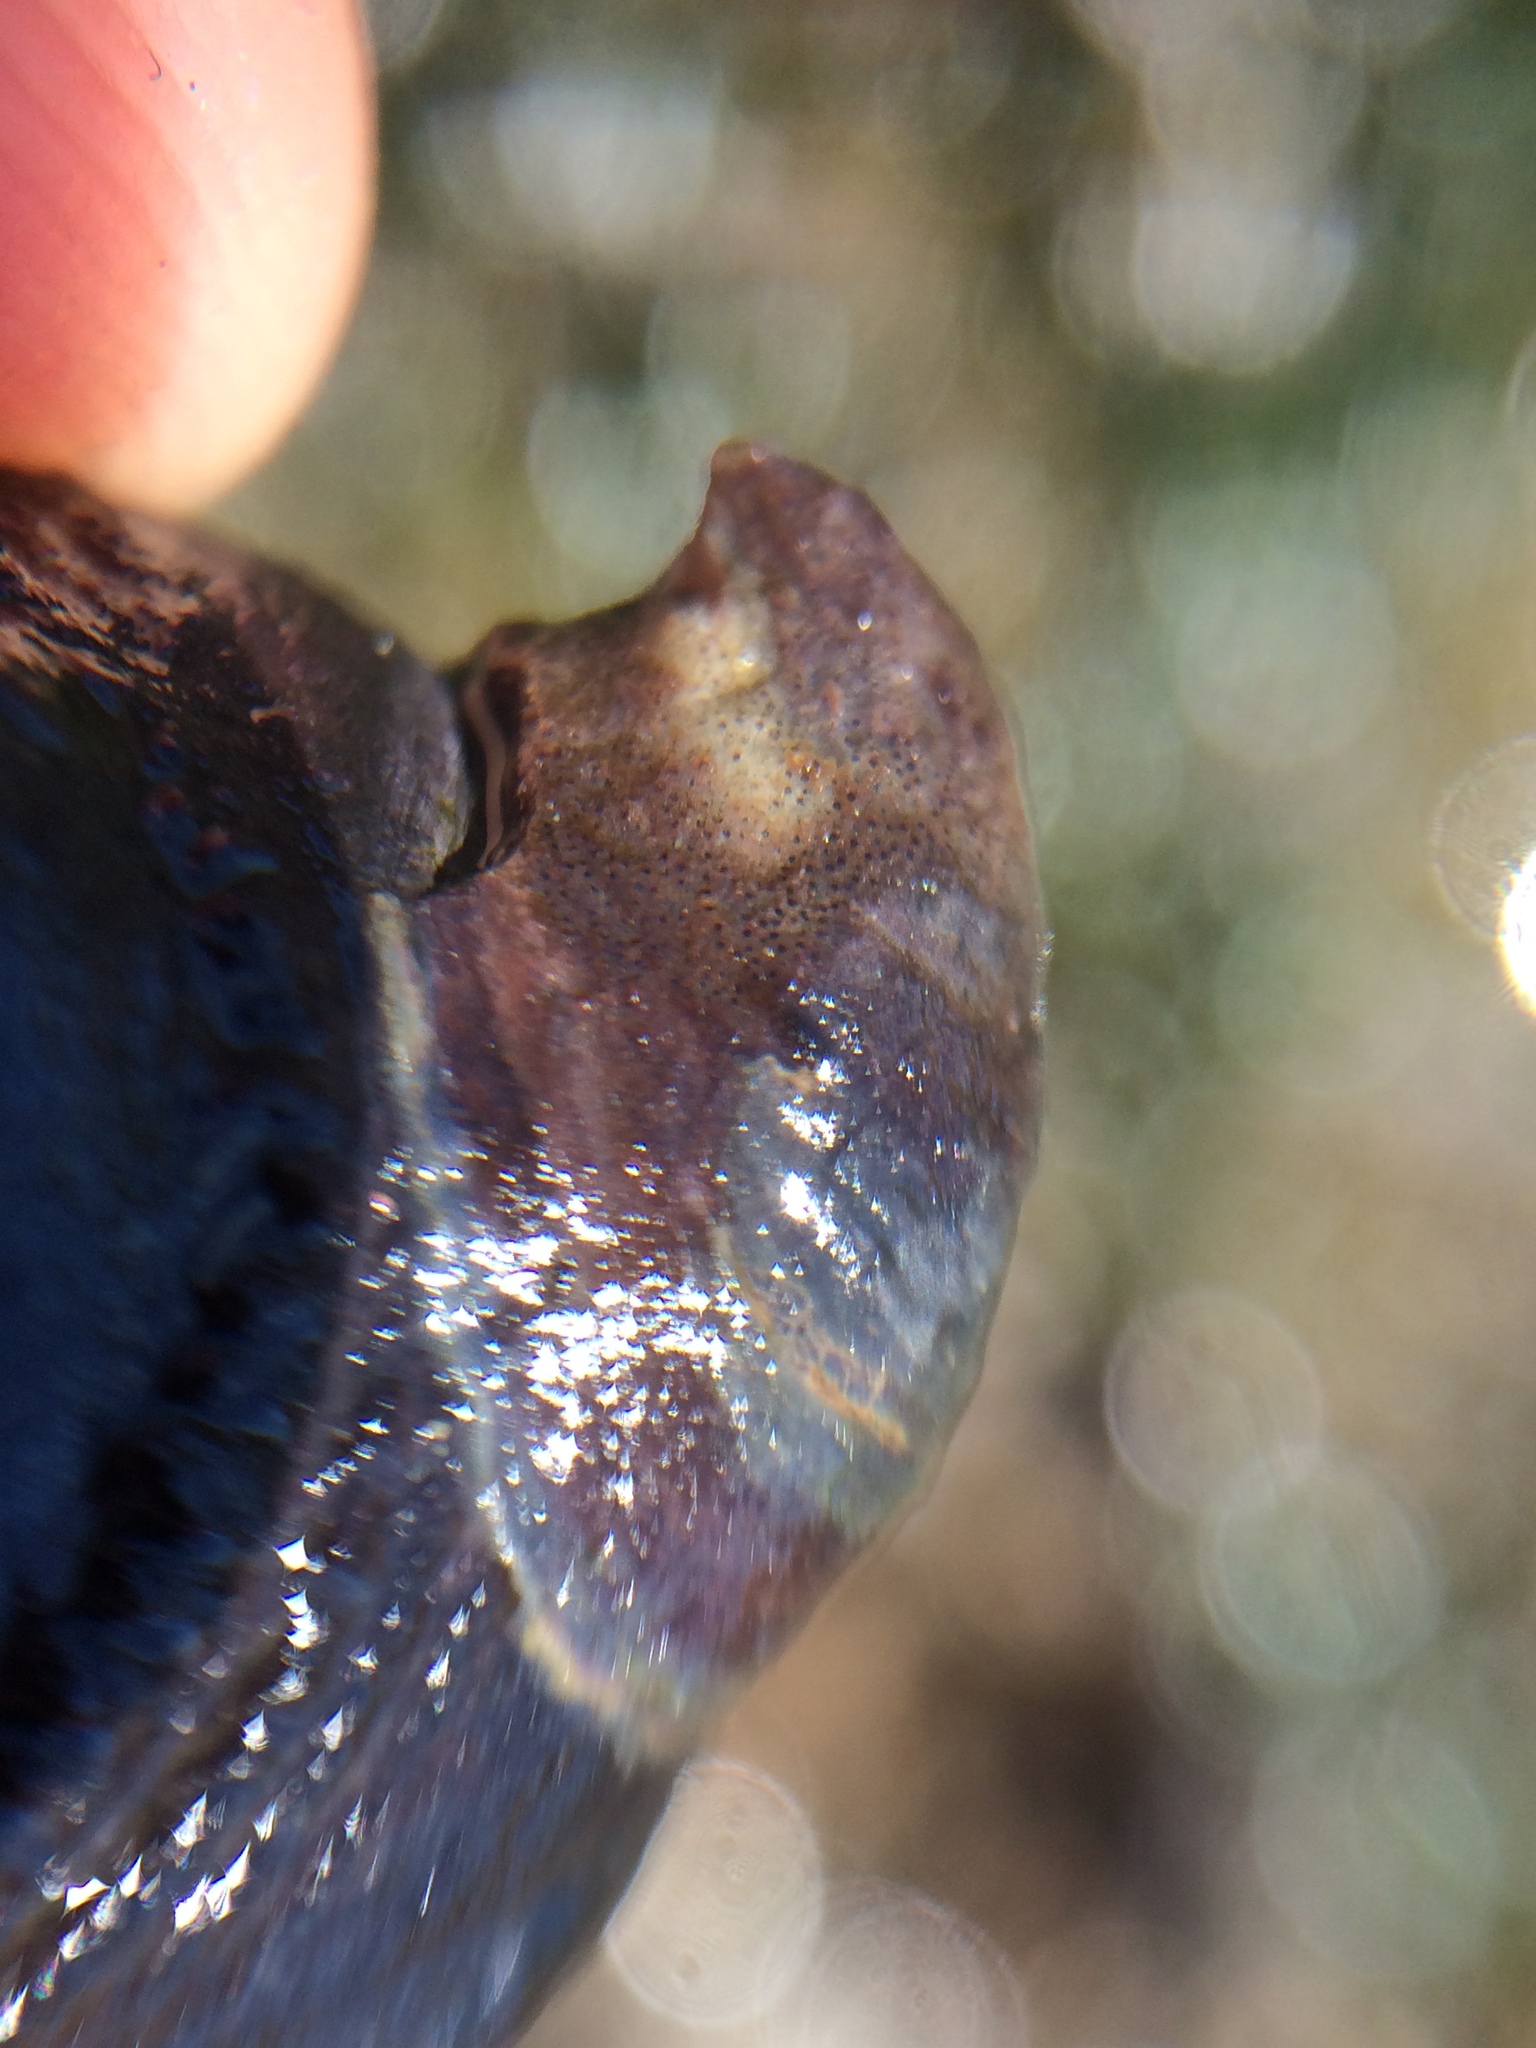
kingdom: Animalia
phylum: Mollusca
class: Gastropoda
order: Littorinimorpha
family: Calyptraeidae
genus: Crepidula
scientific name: Crepidula adunca
